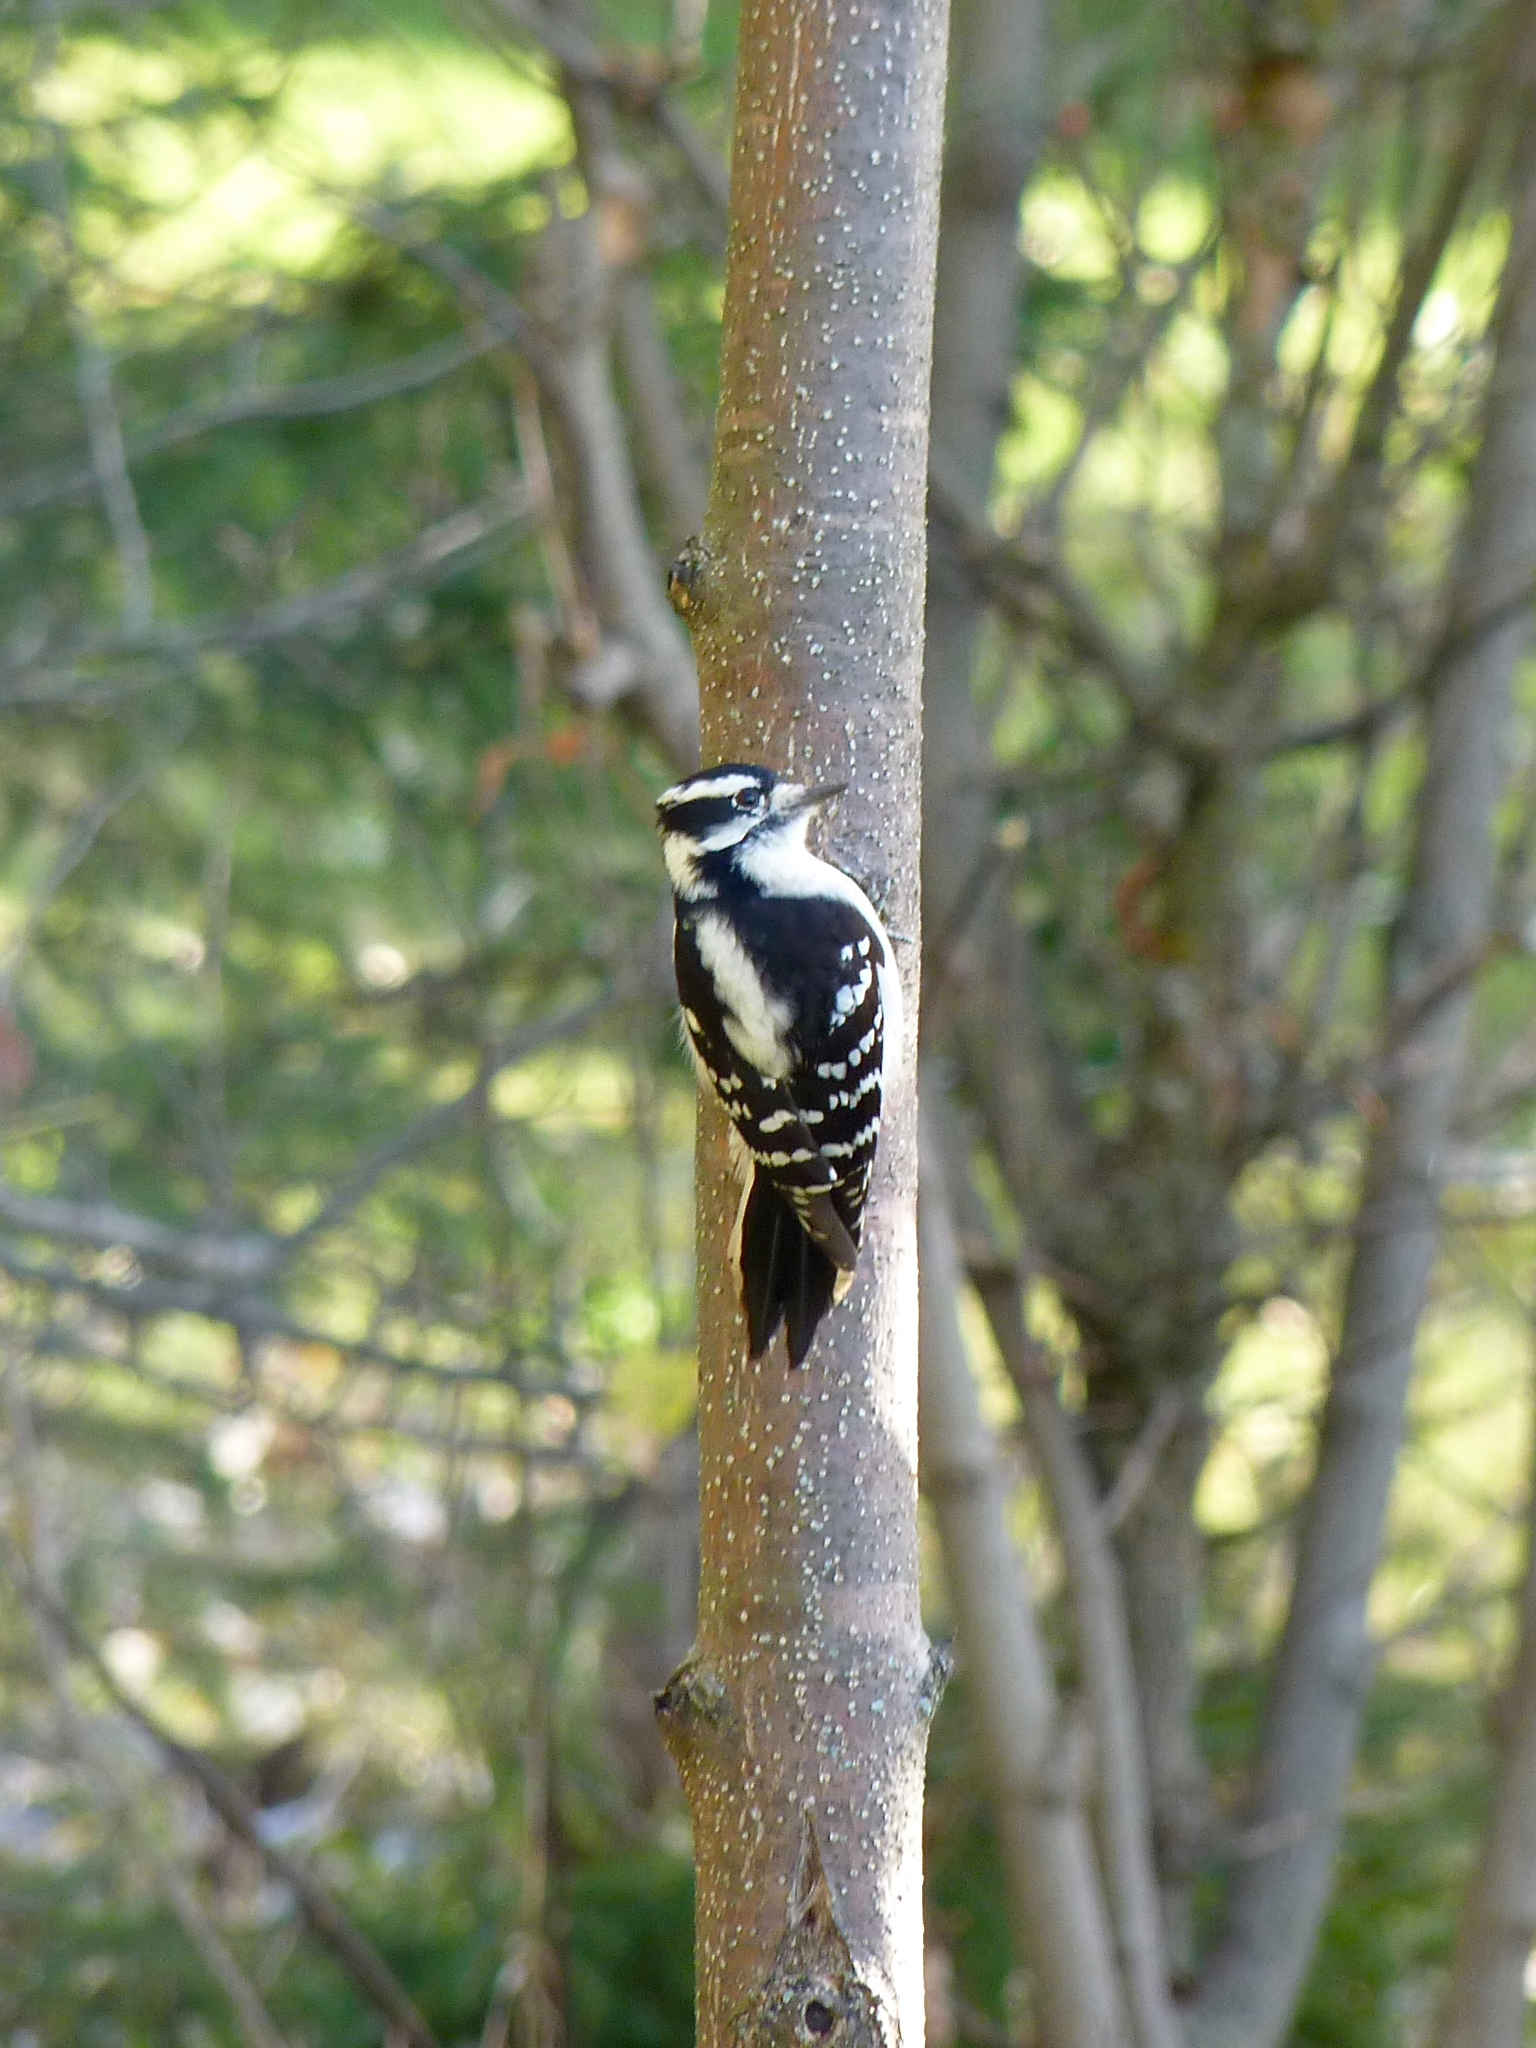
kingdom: Animalia
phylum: Chordata
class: Aves
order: Piciformes
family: Picidae
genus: Dryobates
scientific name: Dryobates pubescens
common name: Downy woodpecker
